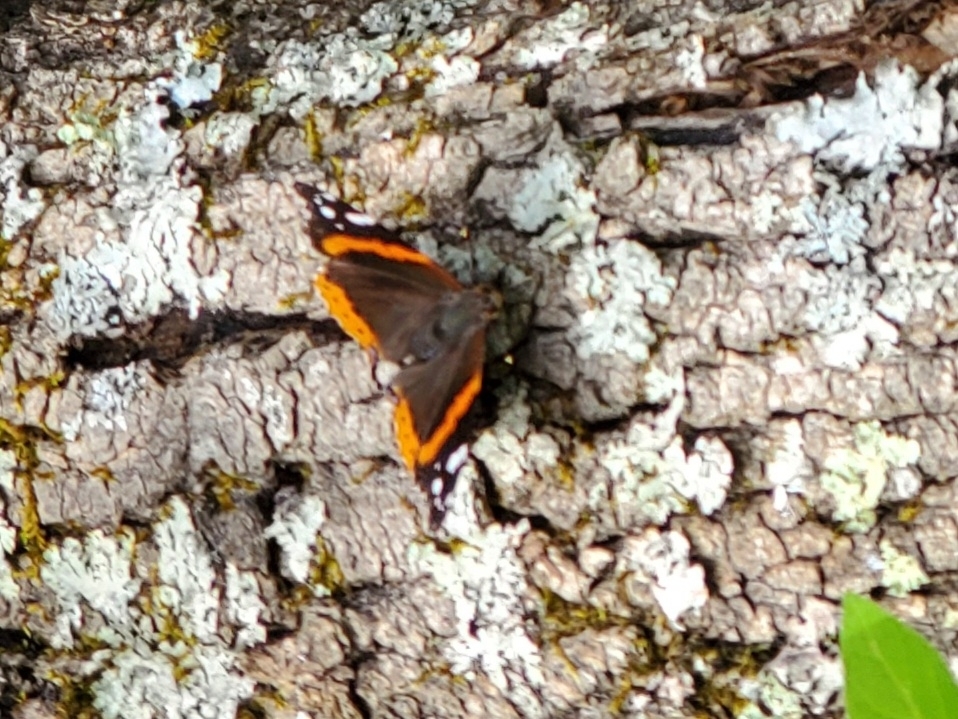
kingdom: Animalia
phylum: Arthropoda
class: Insecta
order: Lepidoptera
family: Nymphalidae
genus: Vanessa
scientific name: Vanessa atalanta
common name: Red admiral
